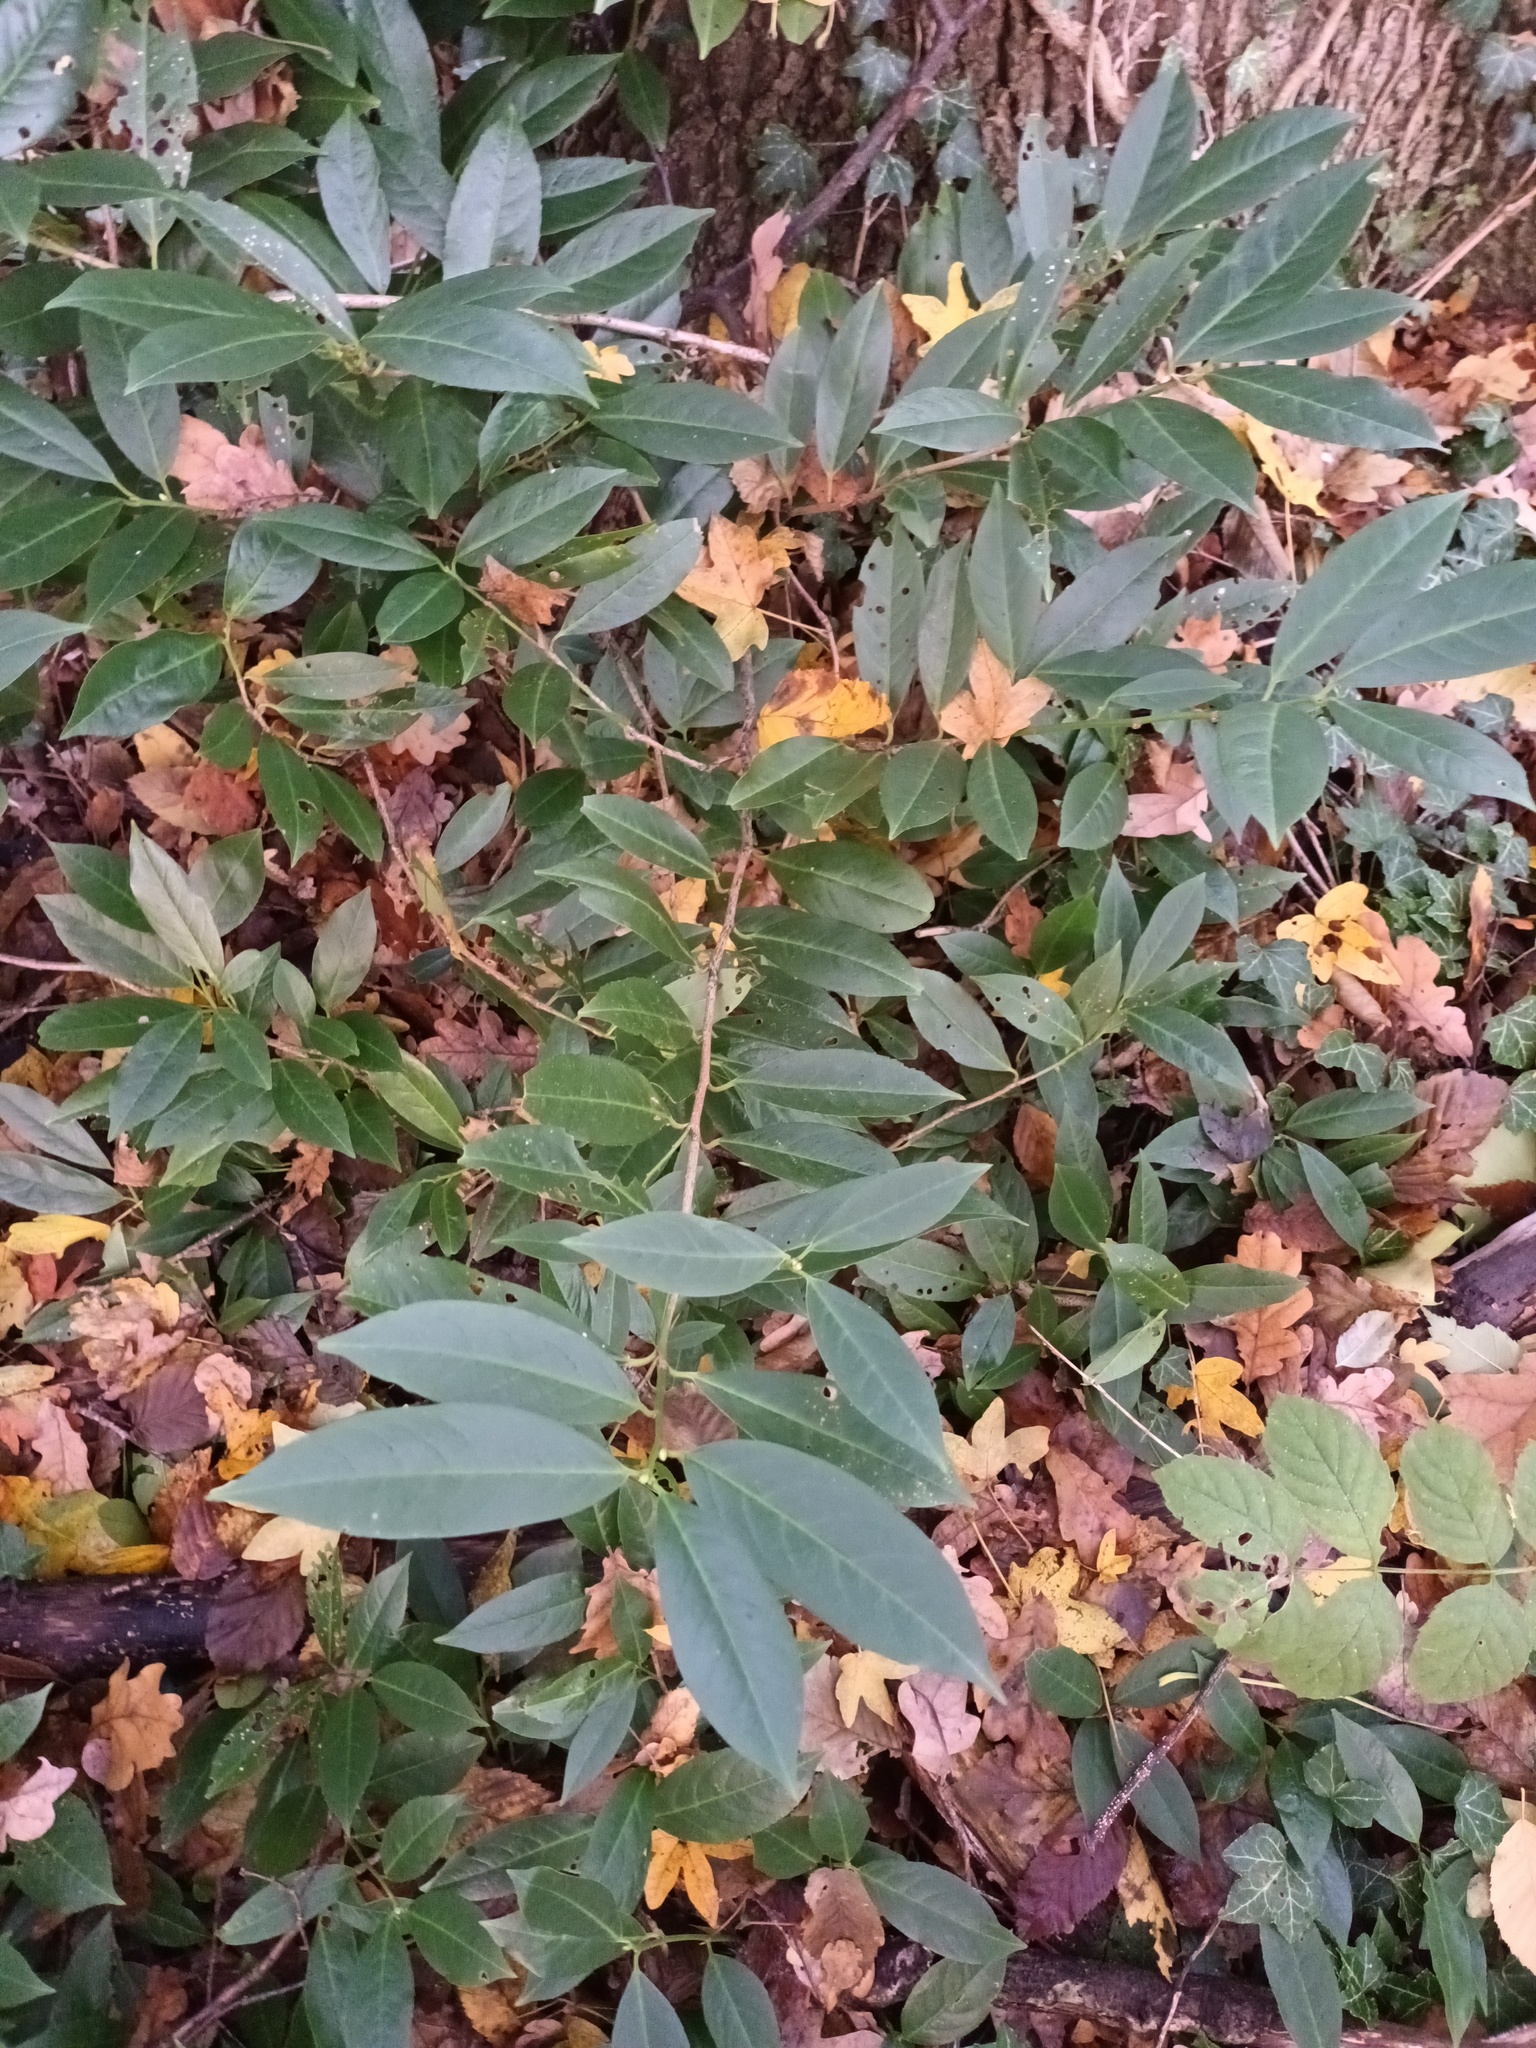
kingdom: Plantae
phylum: Tracheophyta
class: Magnoliopsida
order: Rosales
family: Rosaceae
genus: Prunus
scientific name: Prunus laurocerasus
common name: Cherry laurel
